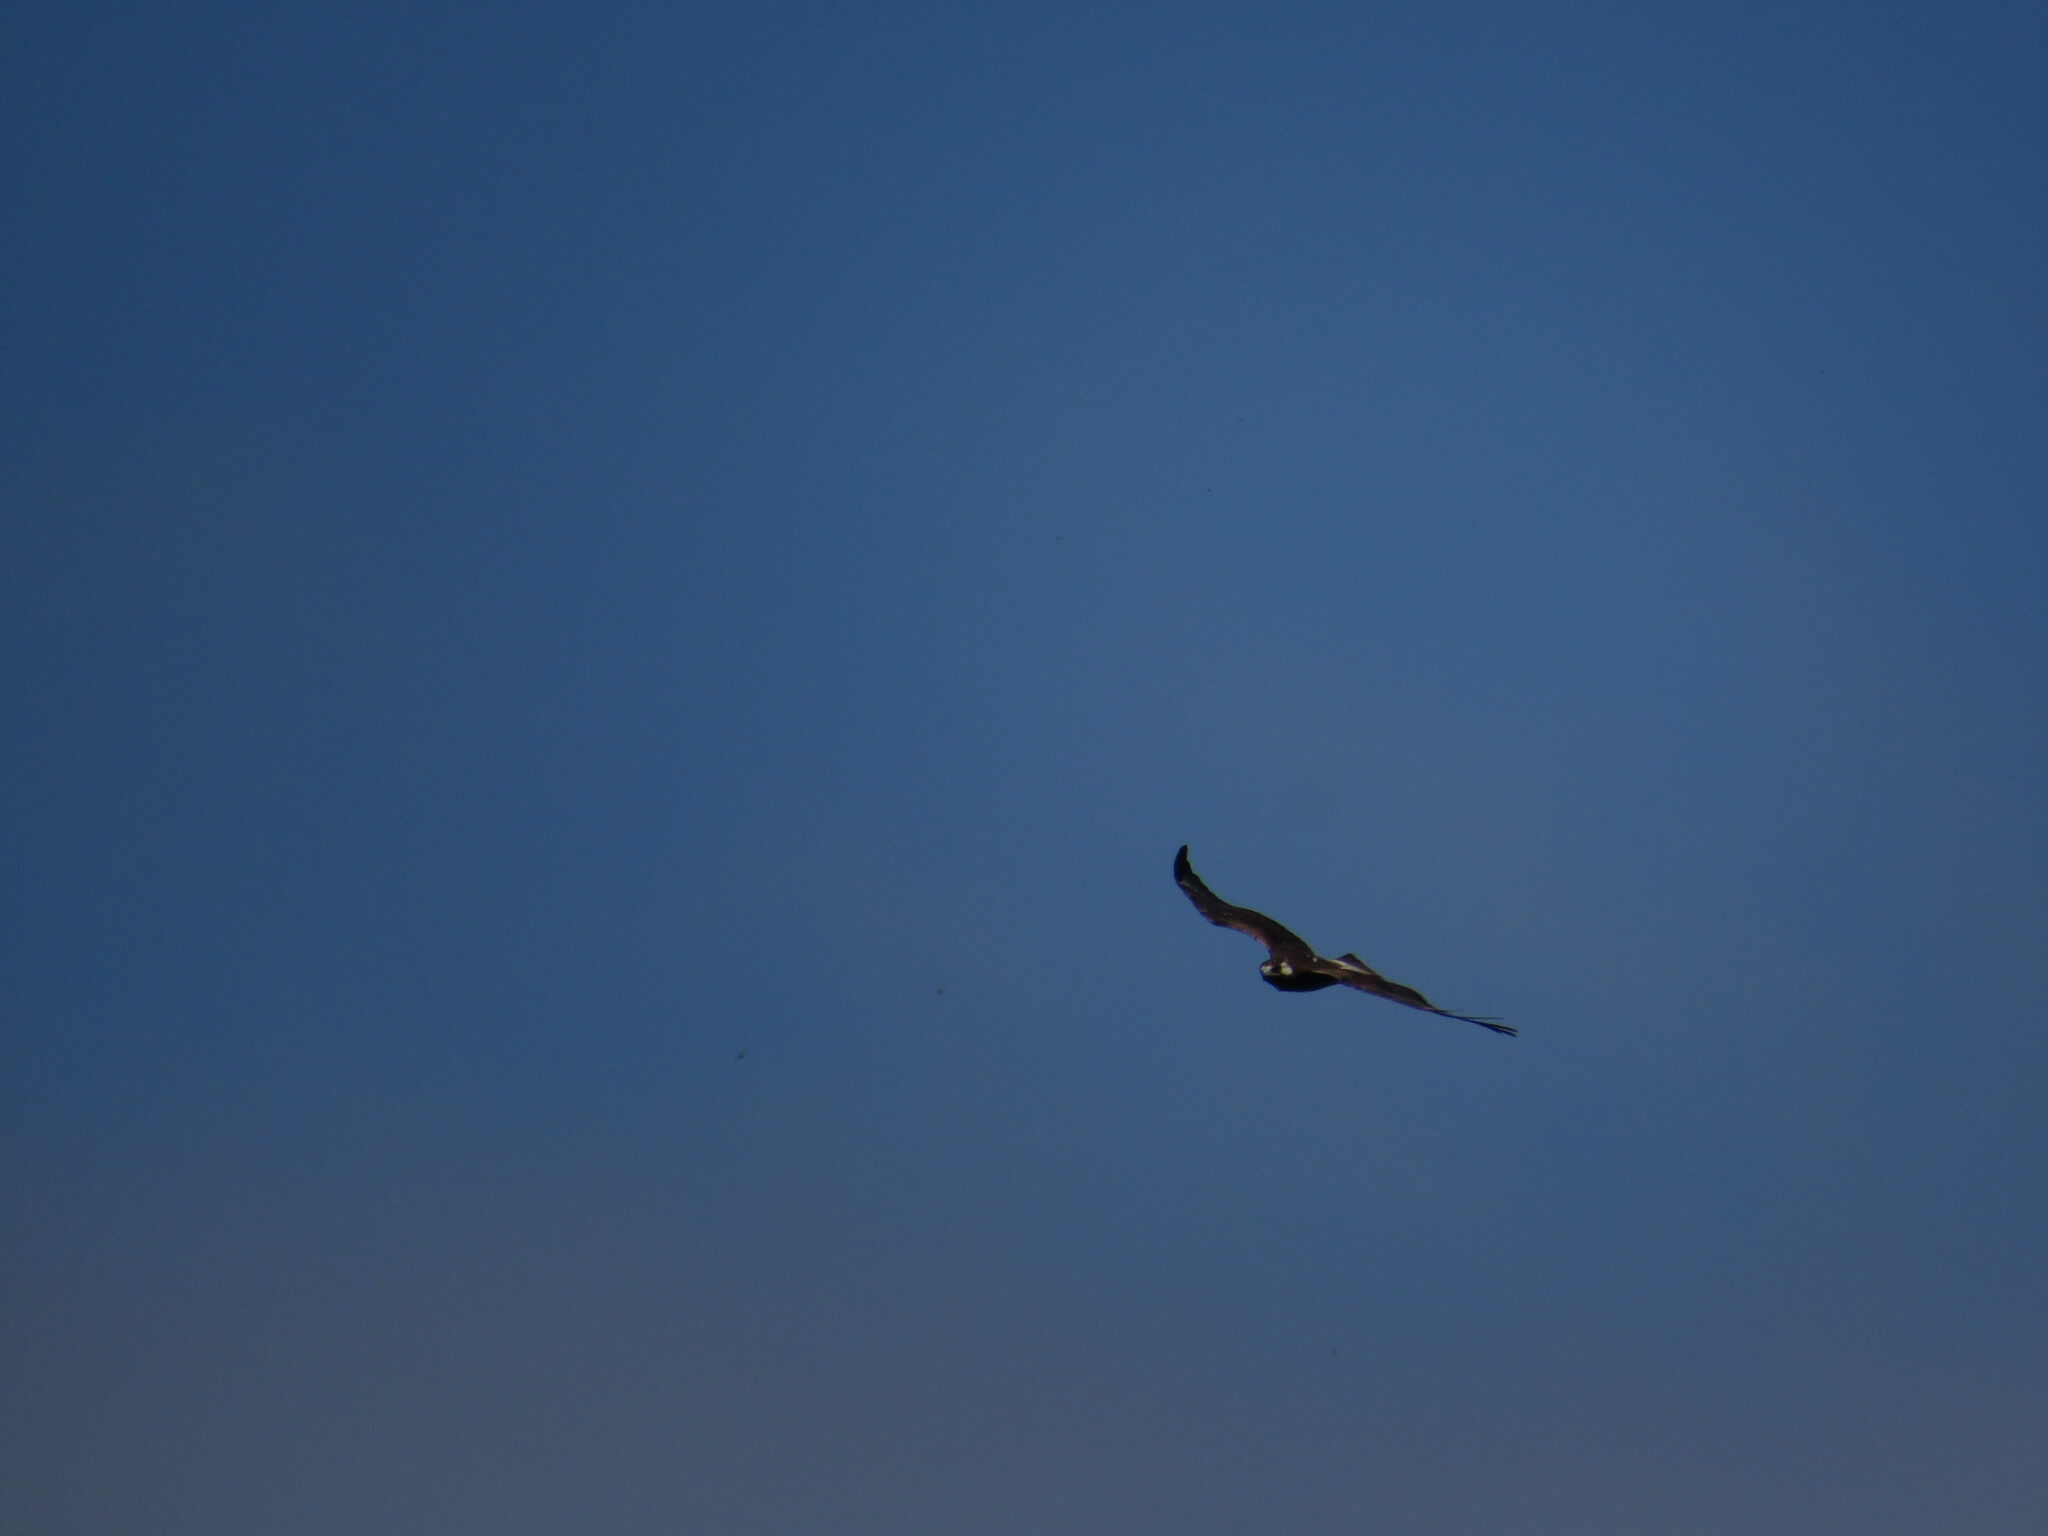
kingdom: Animalia
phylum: Chordata
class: Aves
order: Accipitriformes
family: Accipitridae
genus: Buteo
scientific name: Buteo albicaudatus
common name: White-tailed hawk
